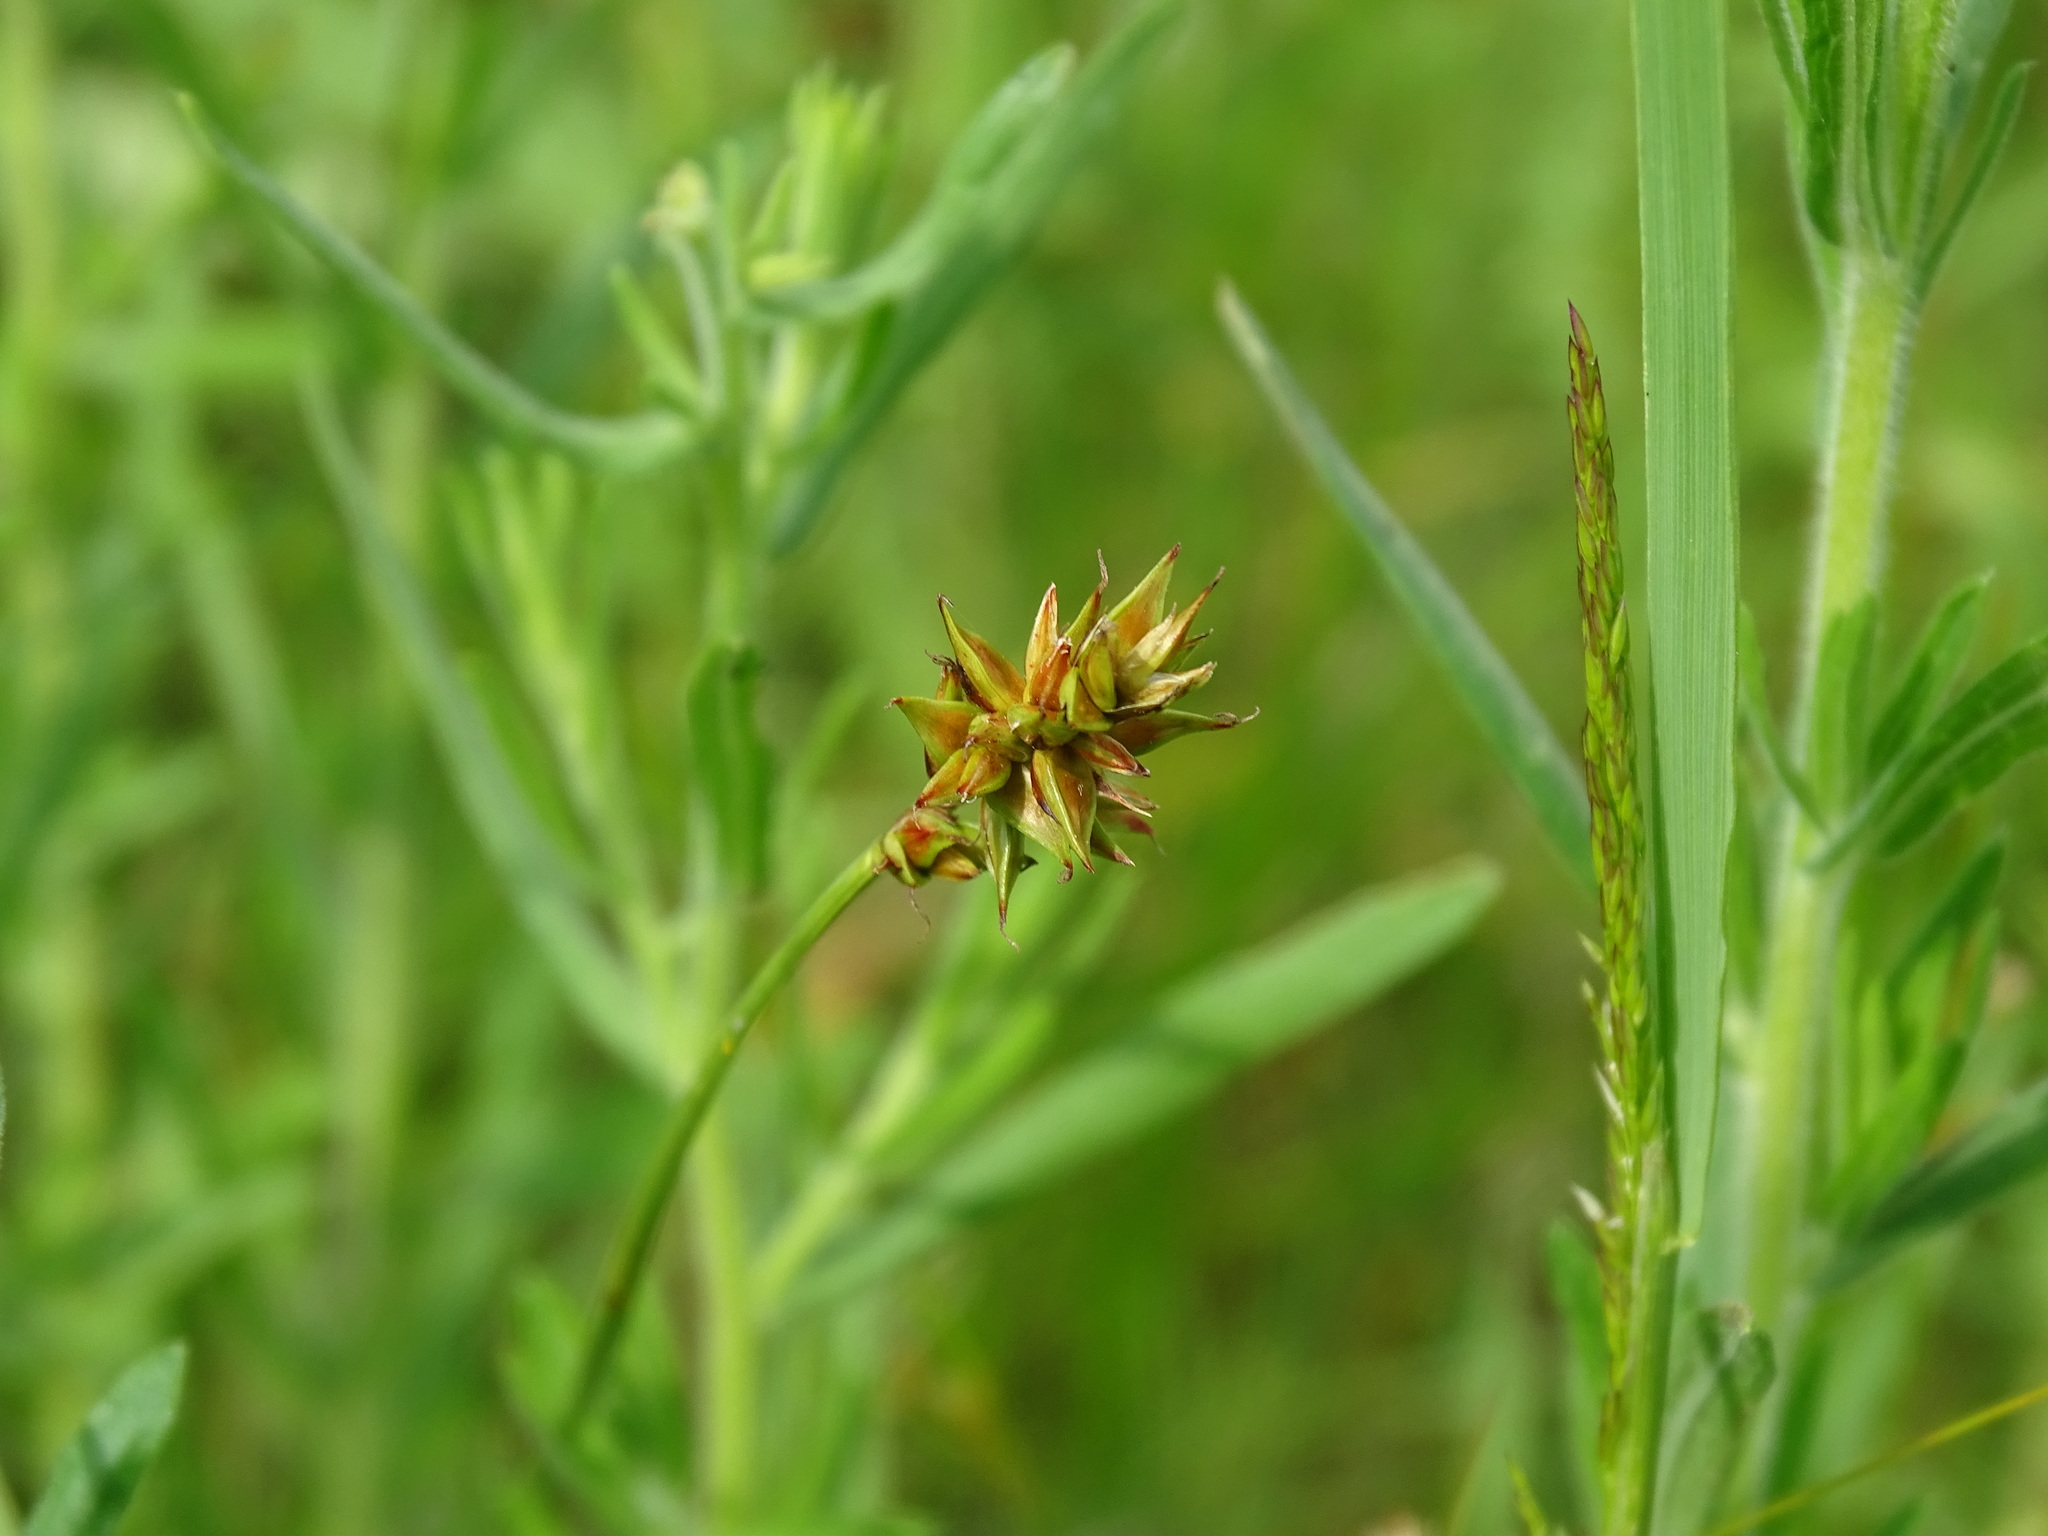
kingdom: Plantae
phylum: Tracheophyta
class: Liliopsida
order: Poales
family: Cyperaceae
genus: Carex
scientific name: Carex spicata
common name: Spiked sedge
